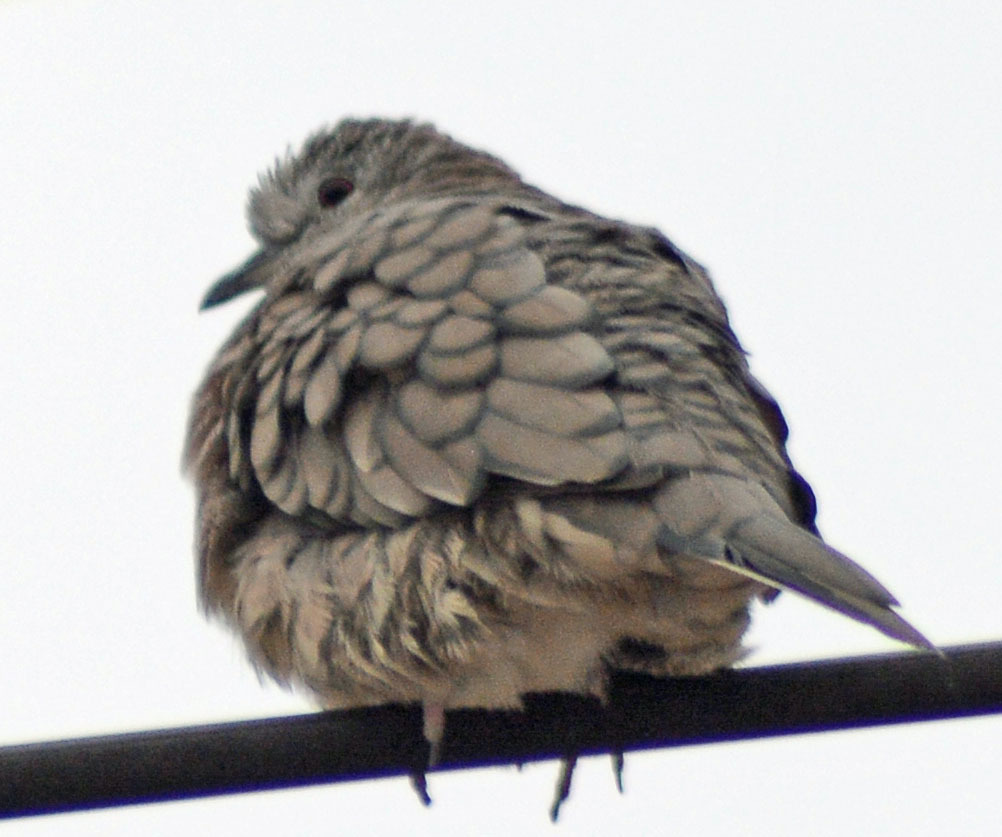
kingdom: Animalia
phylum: Chordata
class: Aves
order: Columbiformes
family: Columbidae
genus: Columbina
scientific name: Columbina inca
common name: Inca dove
